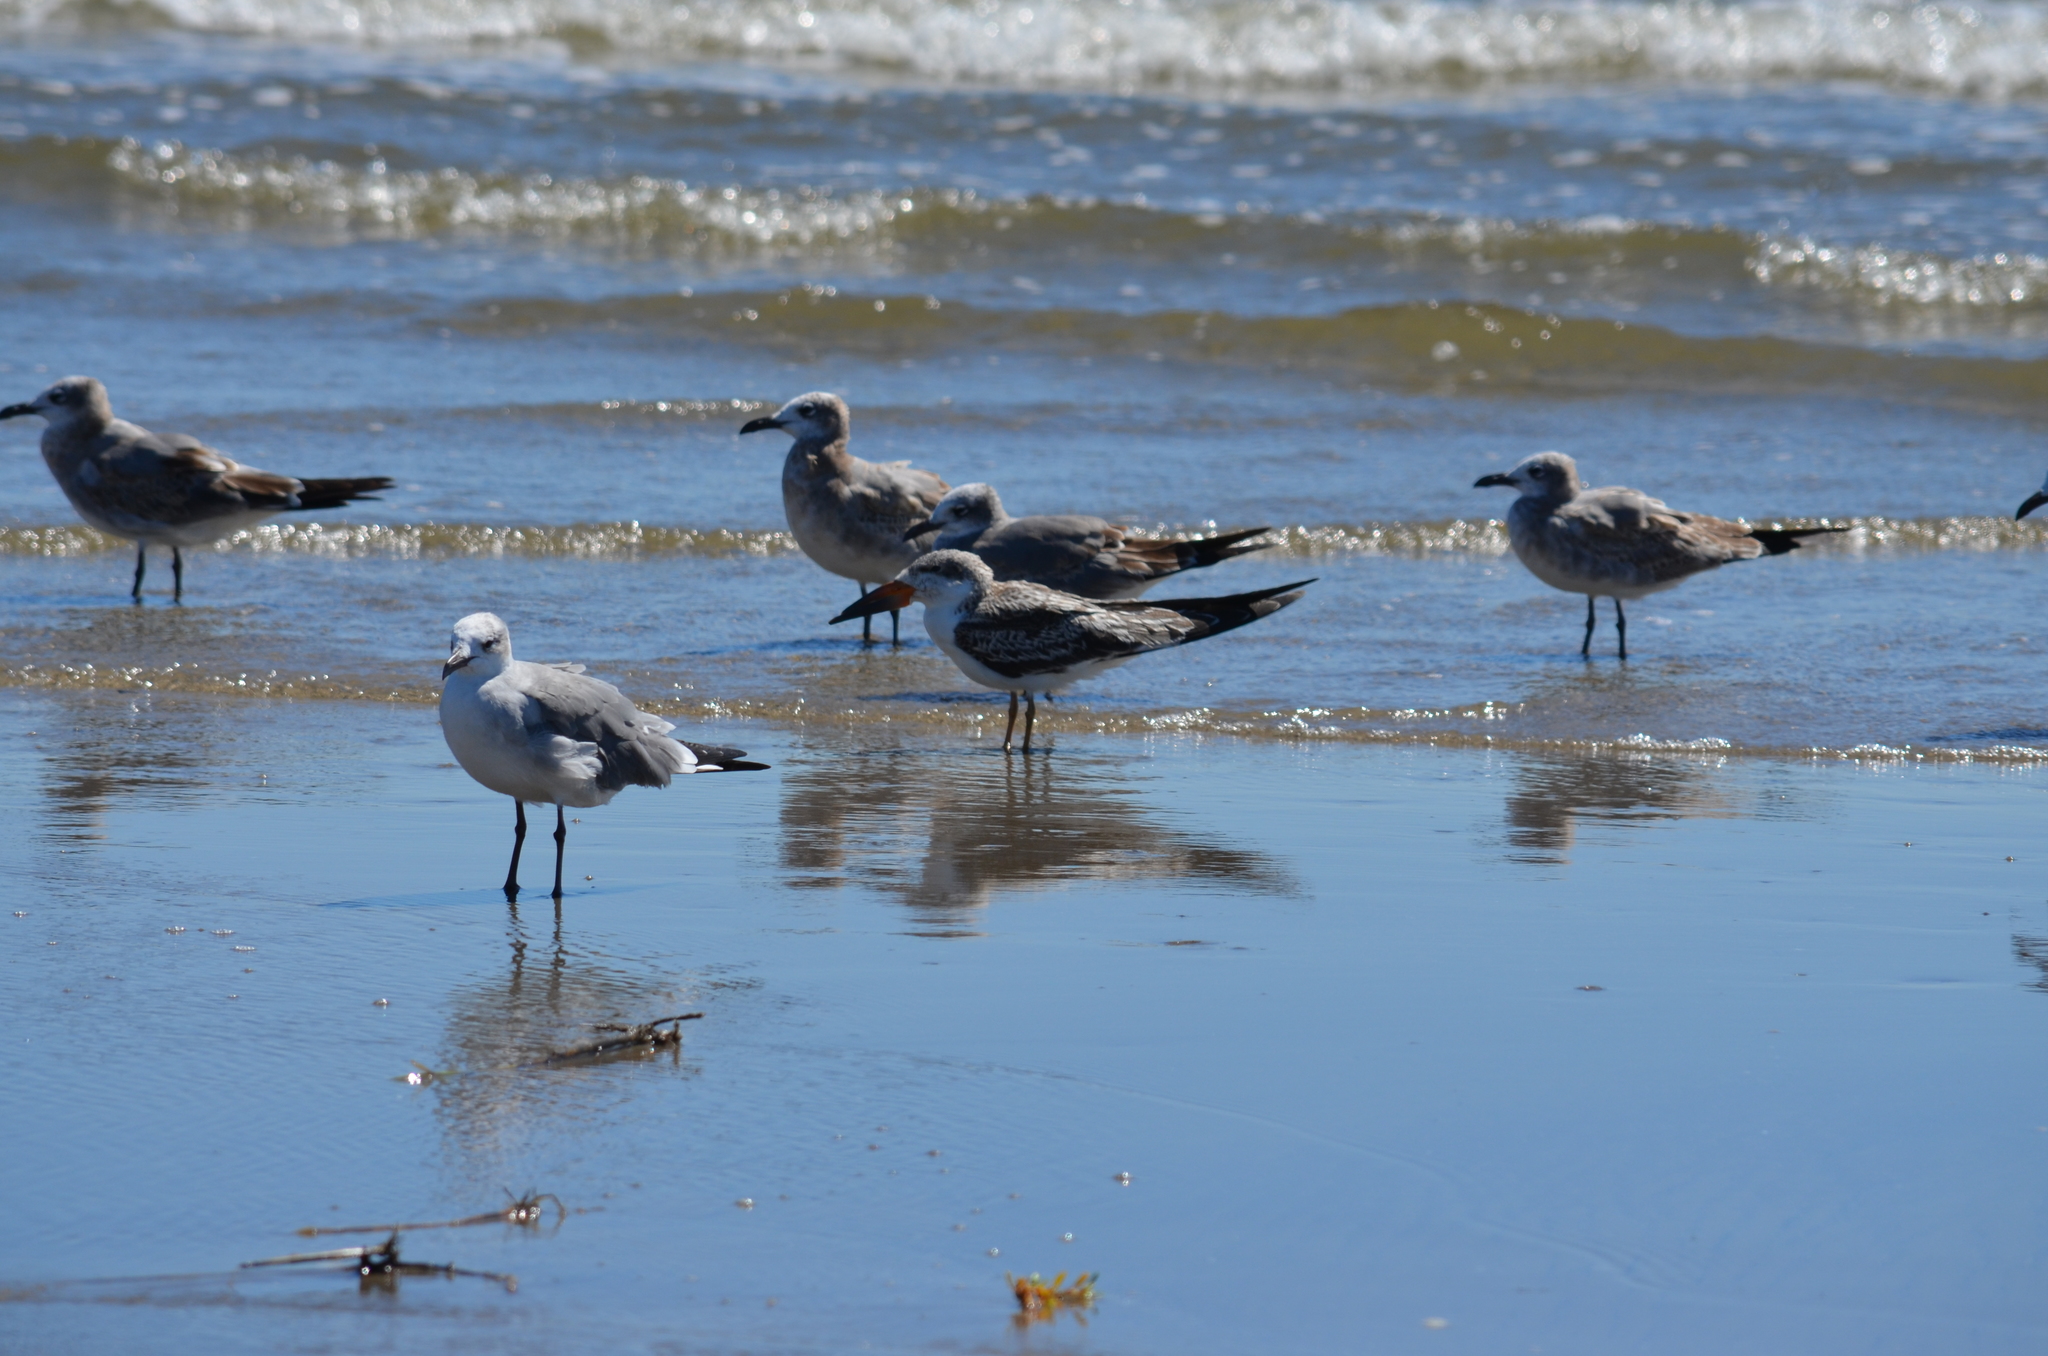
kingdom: Animalia
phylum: Chordata
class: Aves
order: Charadriiformes
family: Laridae
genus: Rynchops
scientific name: Rynchops niger
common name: Black skimmer
